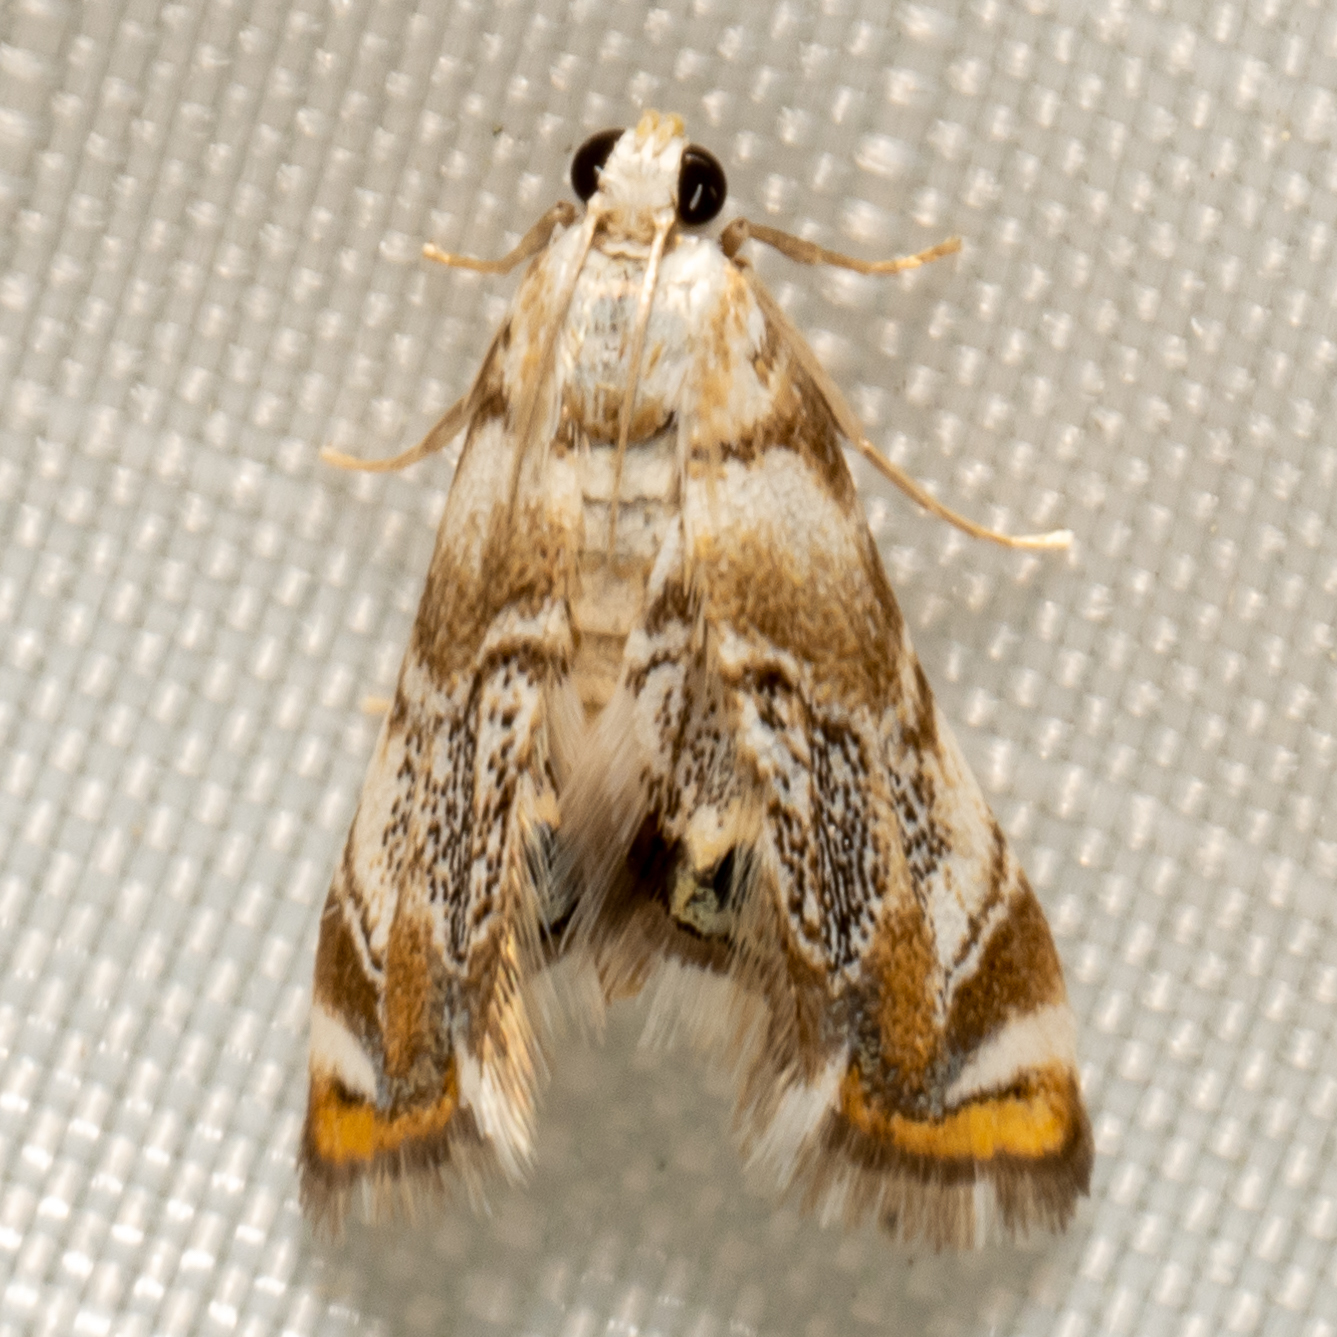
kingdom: Animalia
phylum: Arthropoda
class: Insecta
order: Lepidoptera
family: Crambidae
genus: Eoparargyractis
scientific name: Eoparargyractis irroratalis
